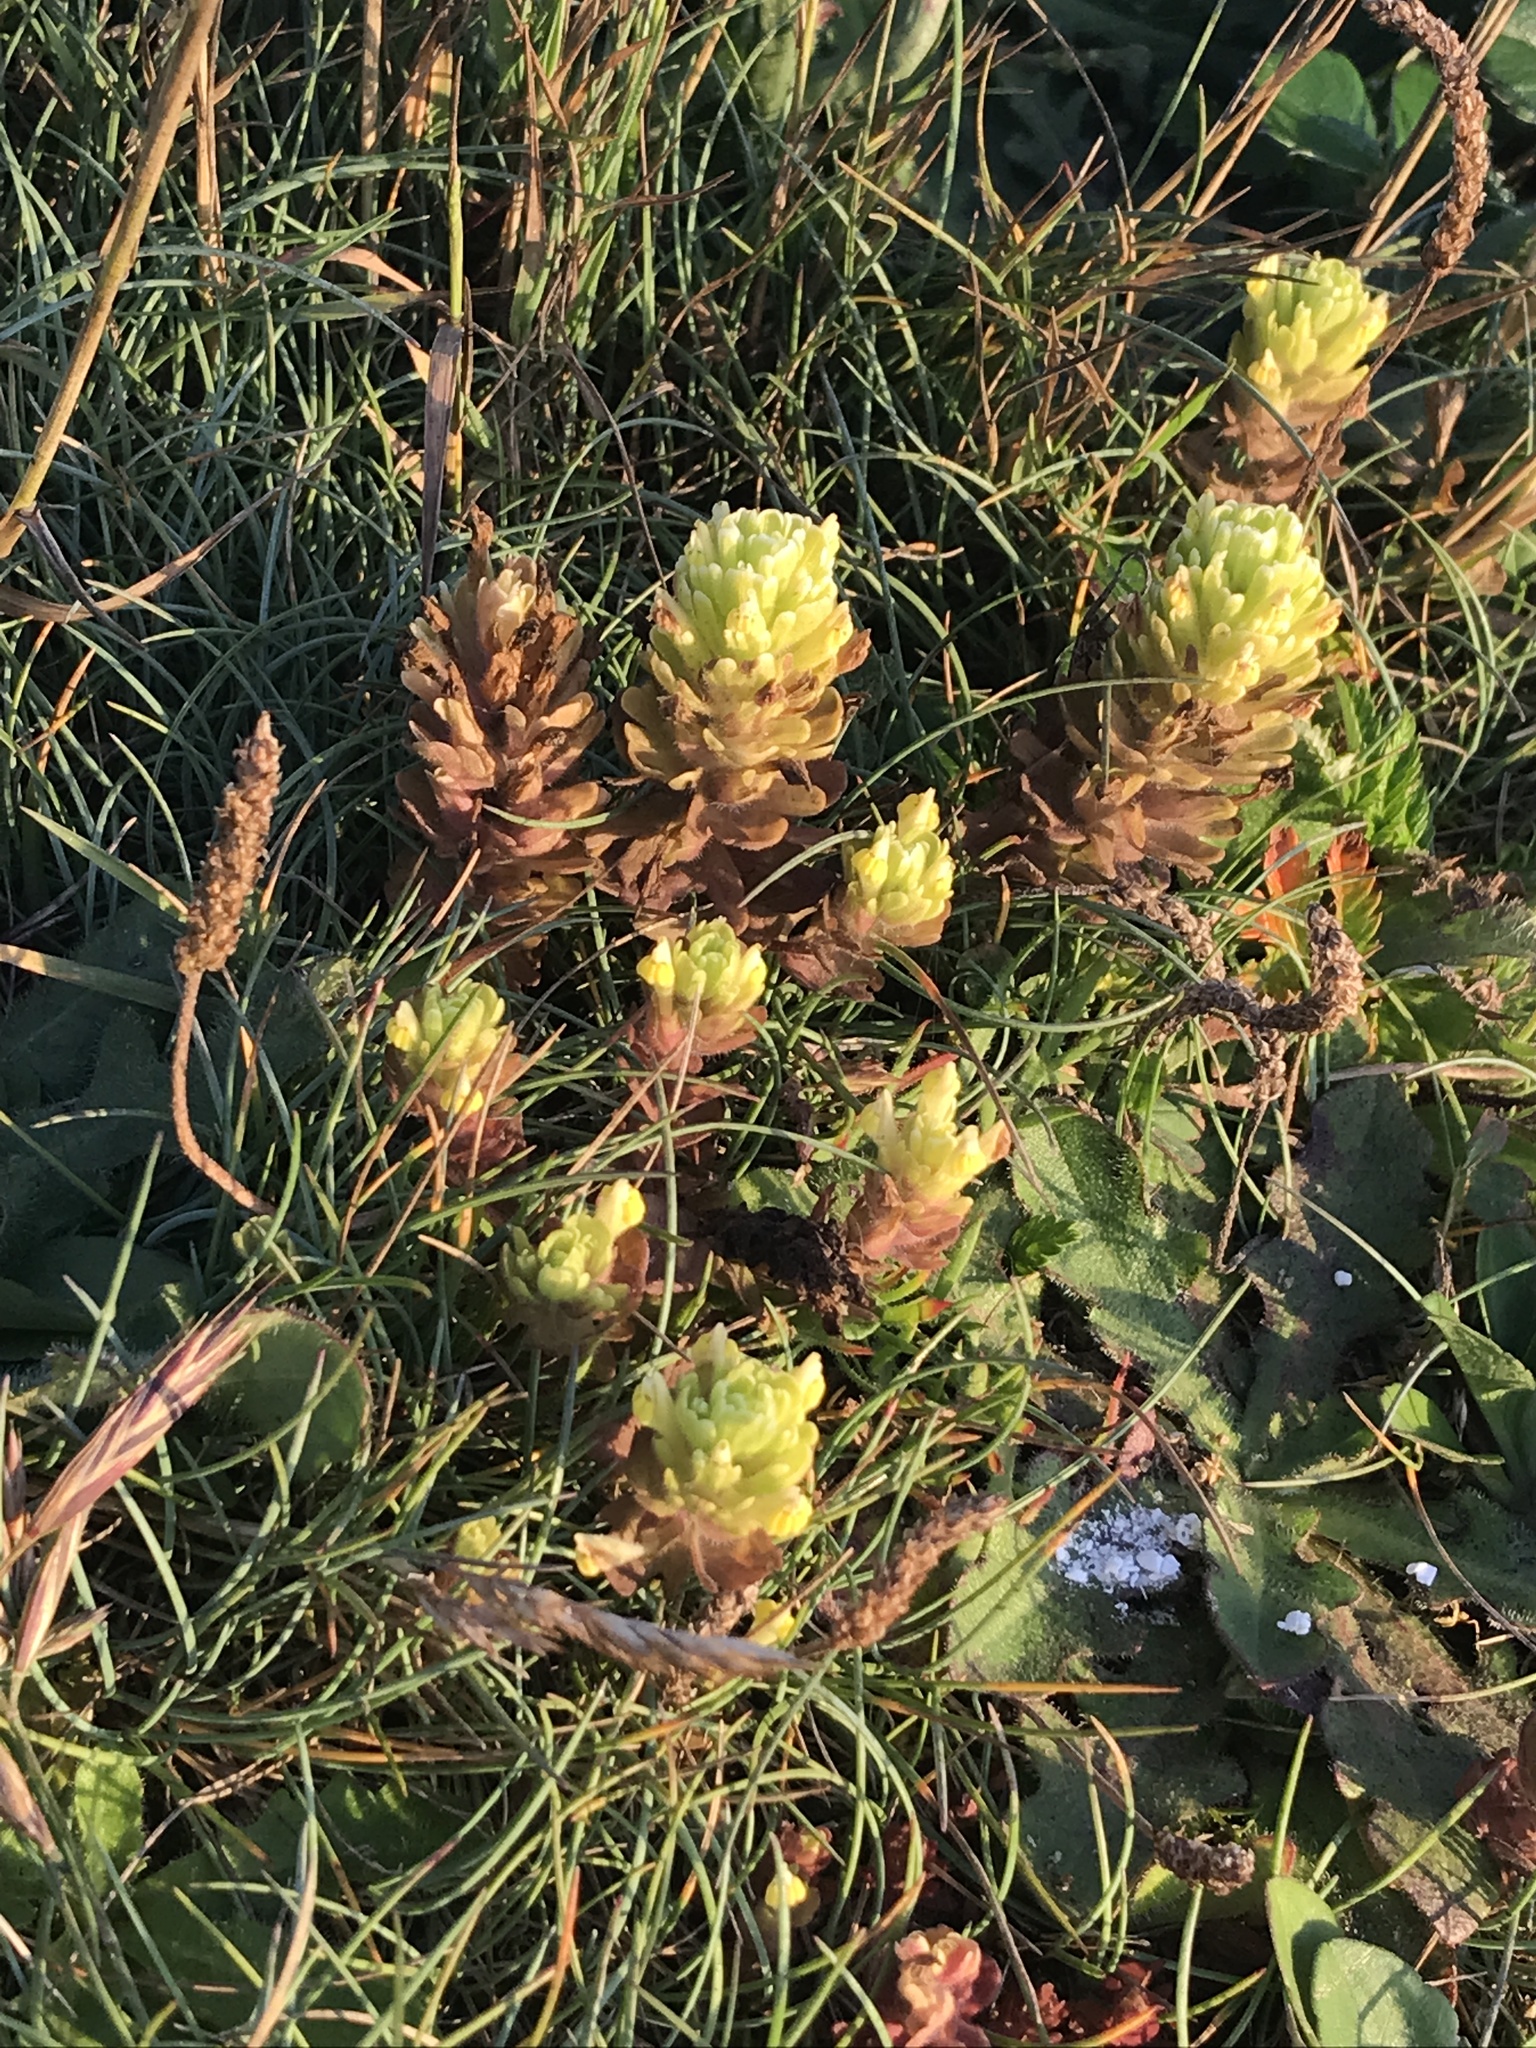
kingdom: Plantae
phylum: Tracheophyta
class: Magnoliopsida
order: Lamiales
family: Orobanchaceae
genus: Castilleja
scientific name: Castilleja ambigua
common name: Johnny-nip
